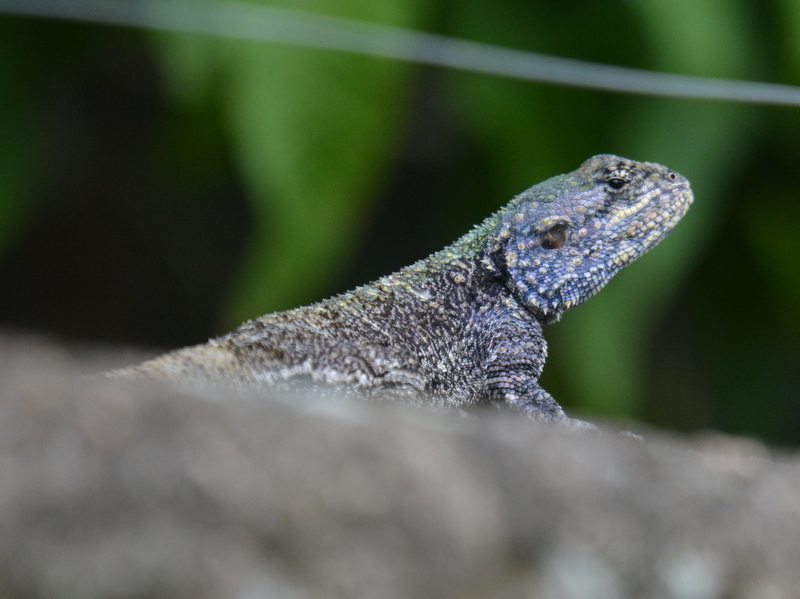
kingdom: Animalia
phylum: Chordata
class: Squamata
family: Agamidae
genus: Acanthocercus
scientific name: Acanthocercus atricollis
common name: Southern tree agama
